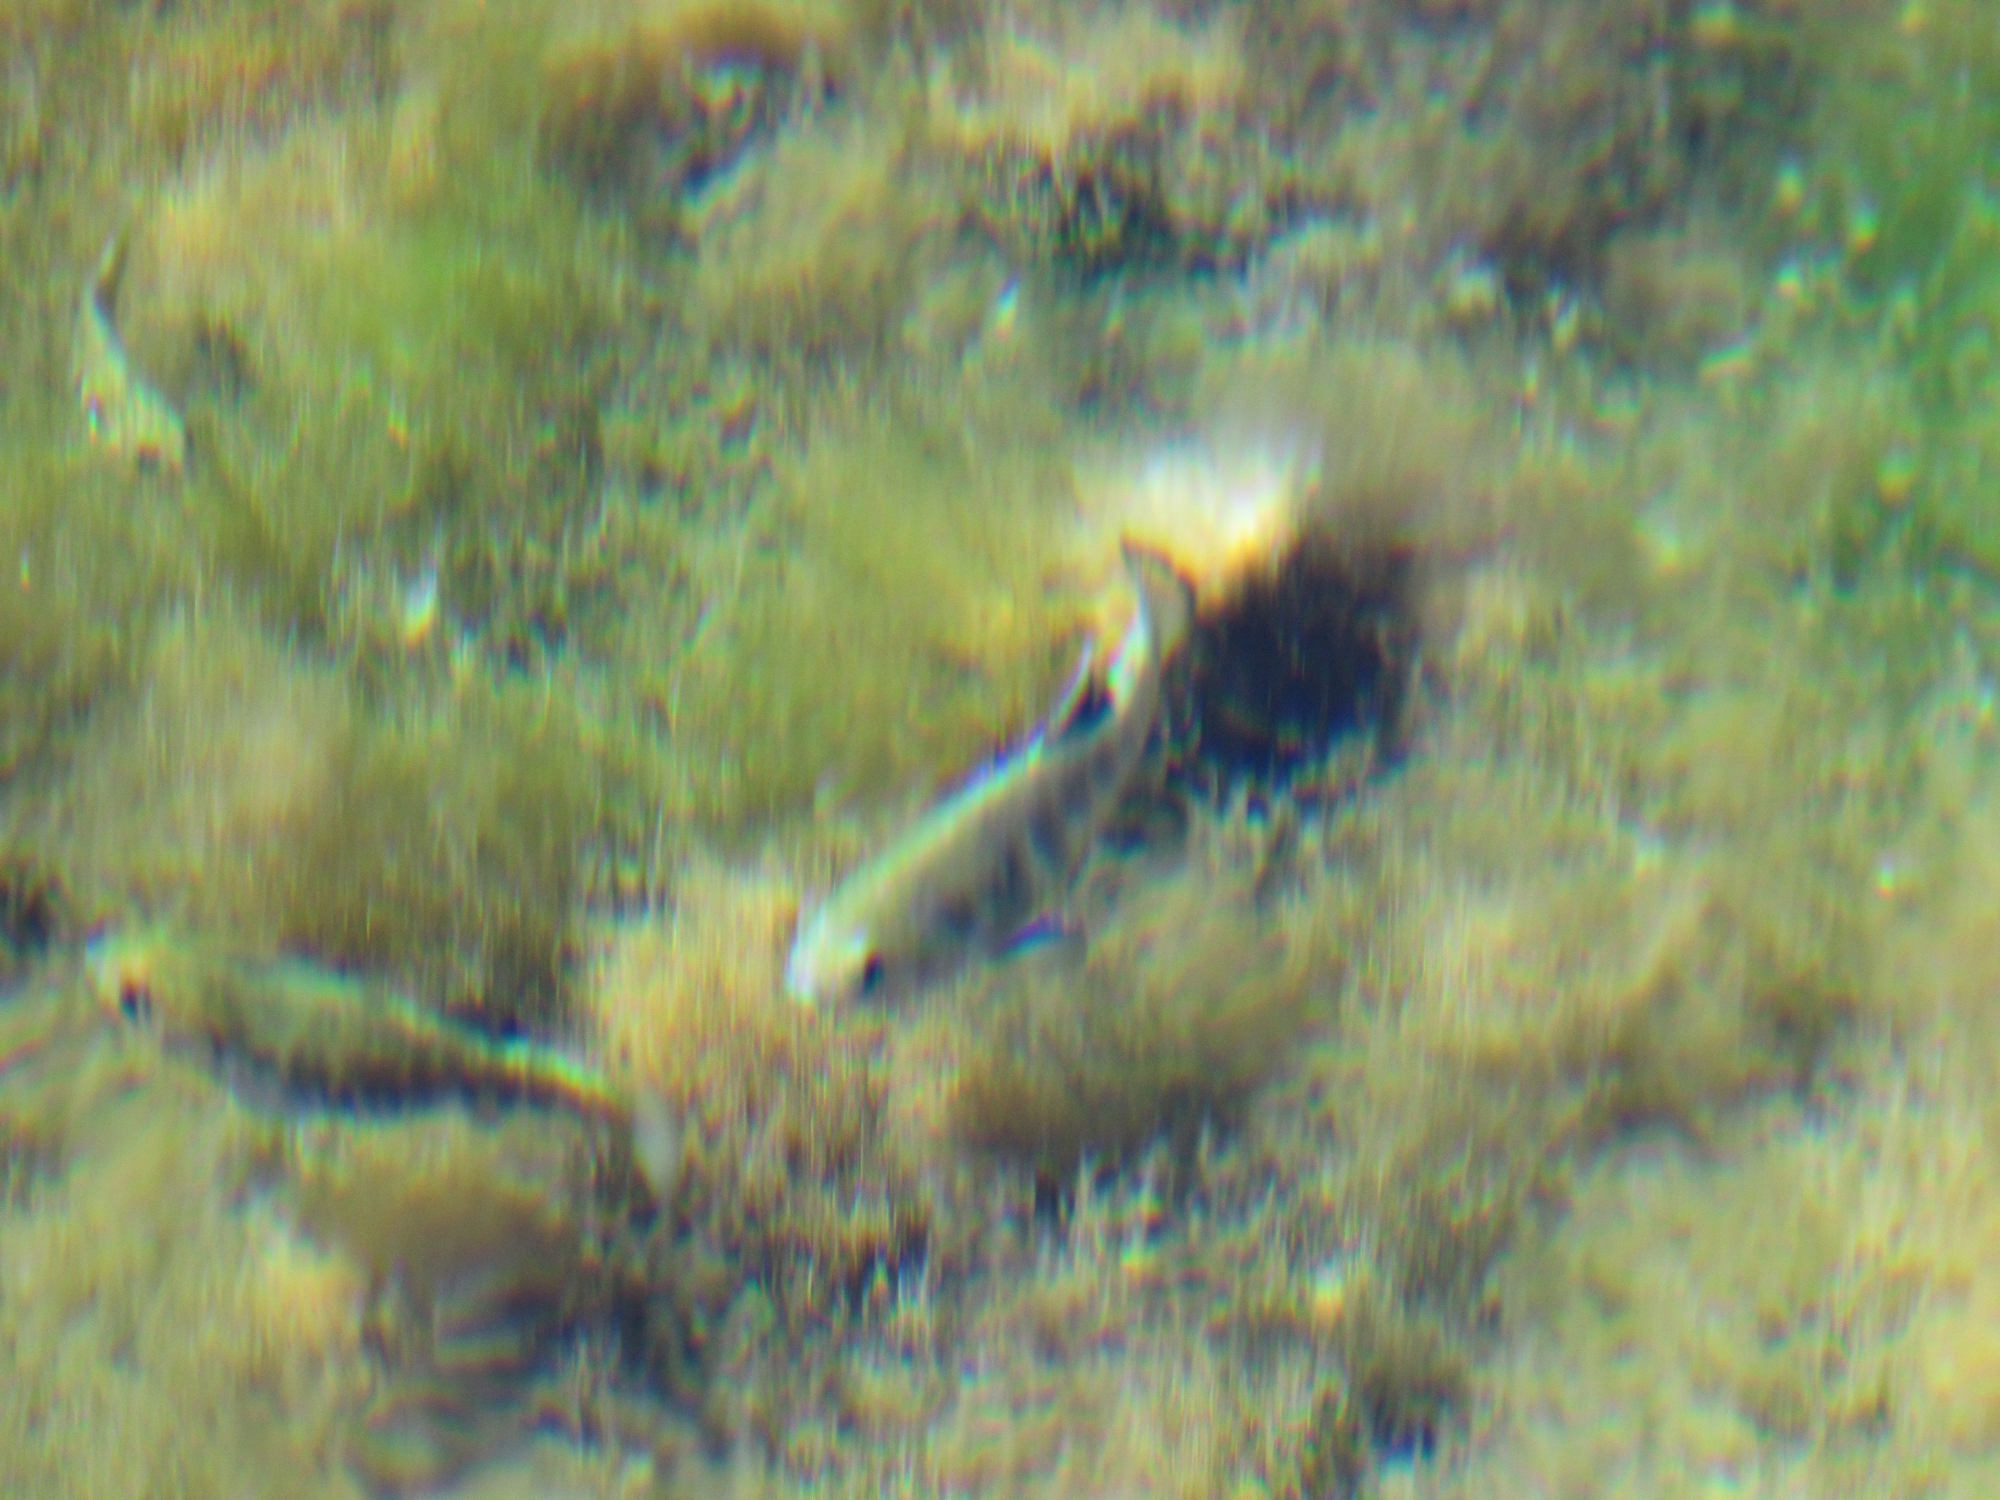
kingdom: Animalia
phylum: Chordata
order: Cyprinodontiformes
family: Cyprinodontidae
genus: Cyprinodon
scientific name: Cyprinodon nevadensis
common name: Amargosa pupfish
